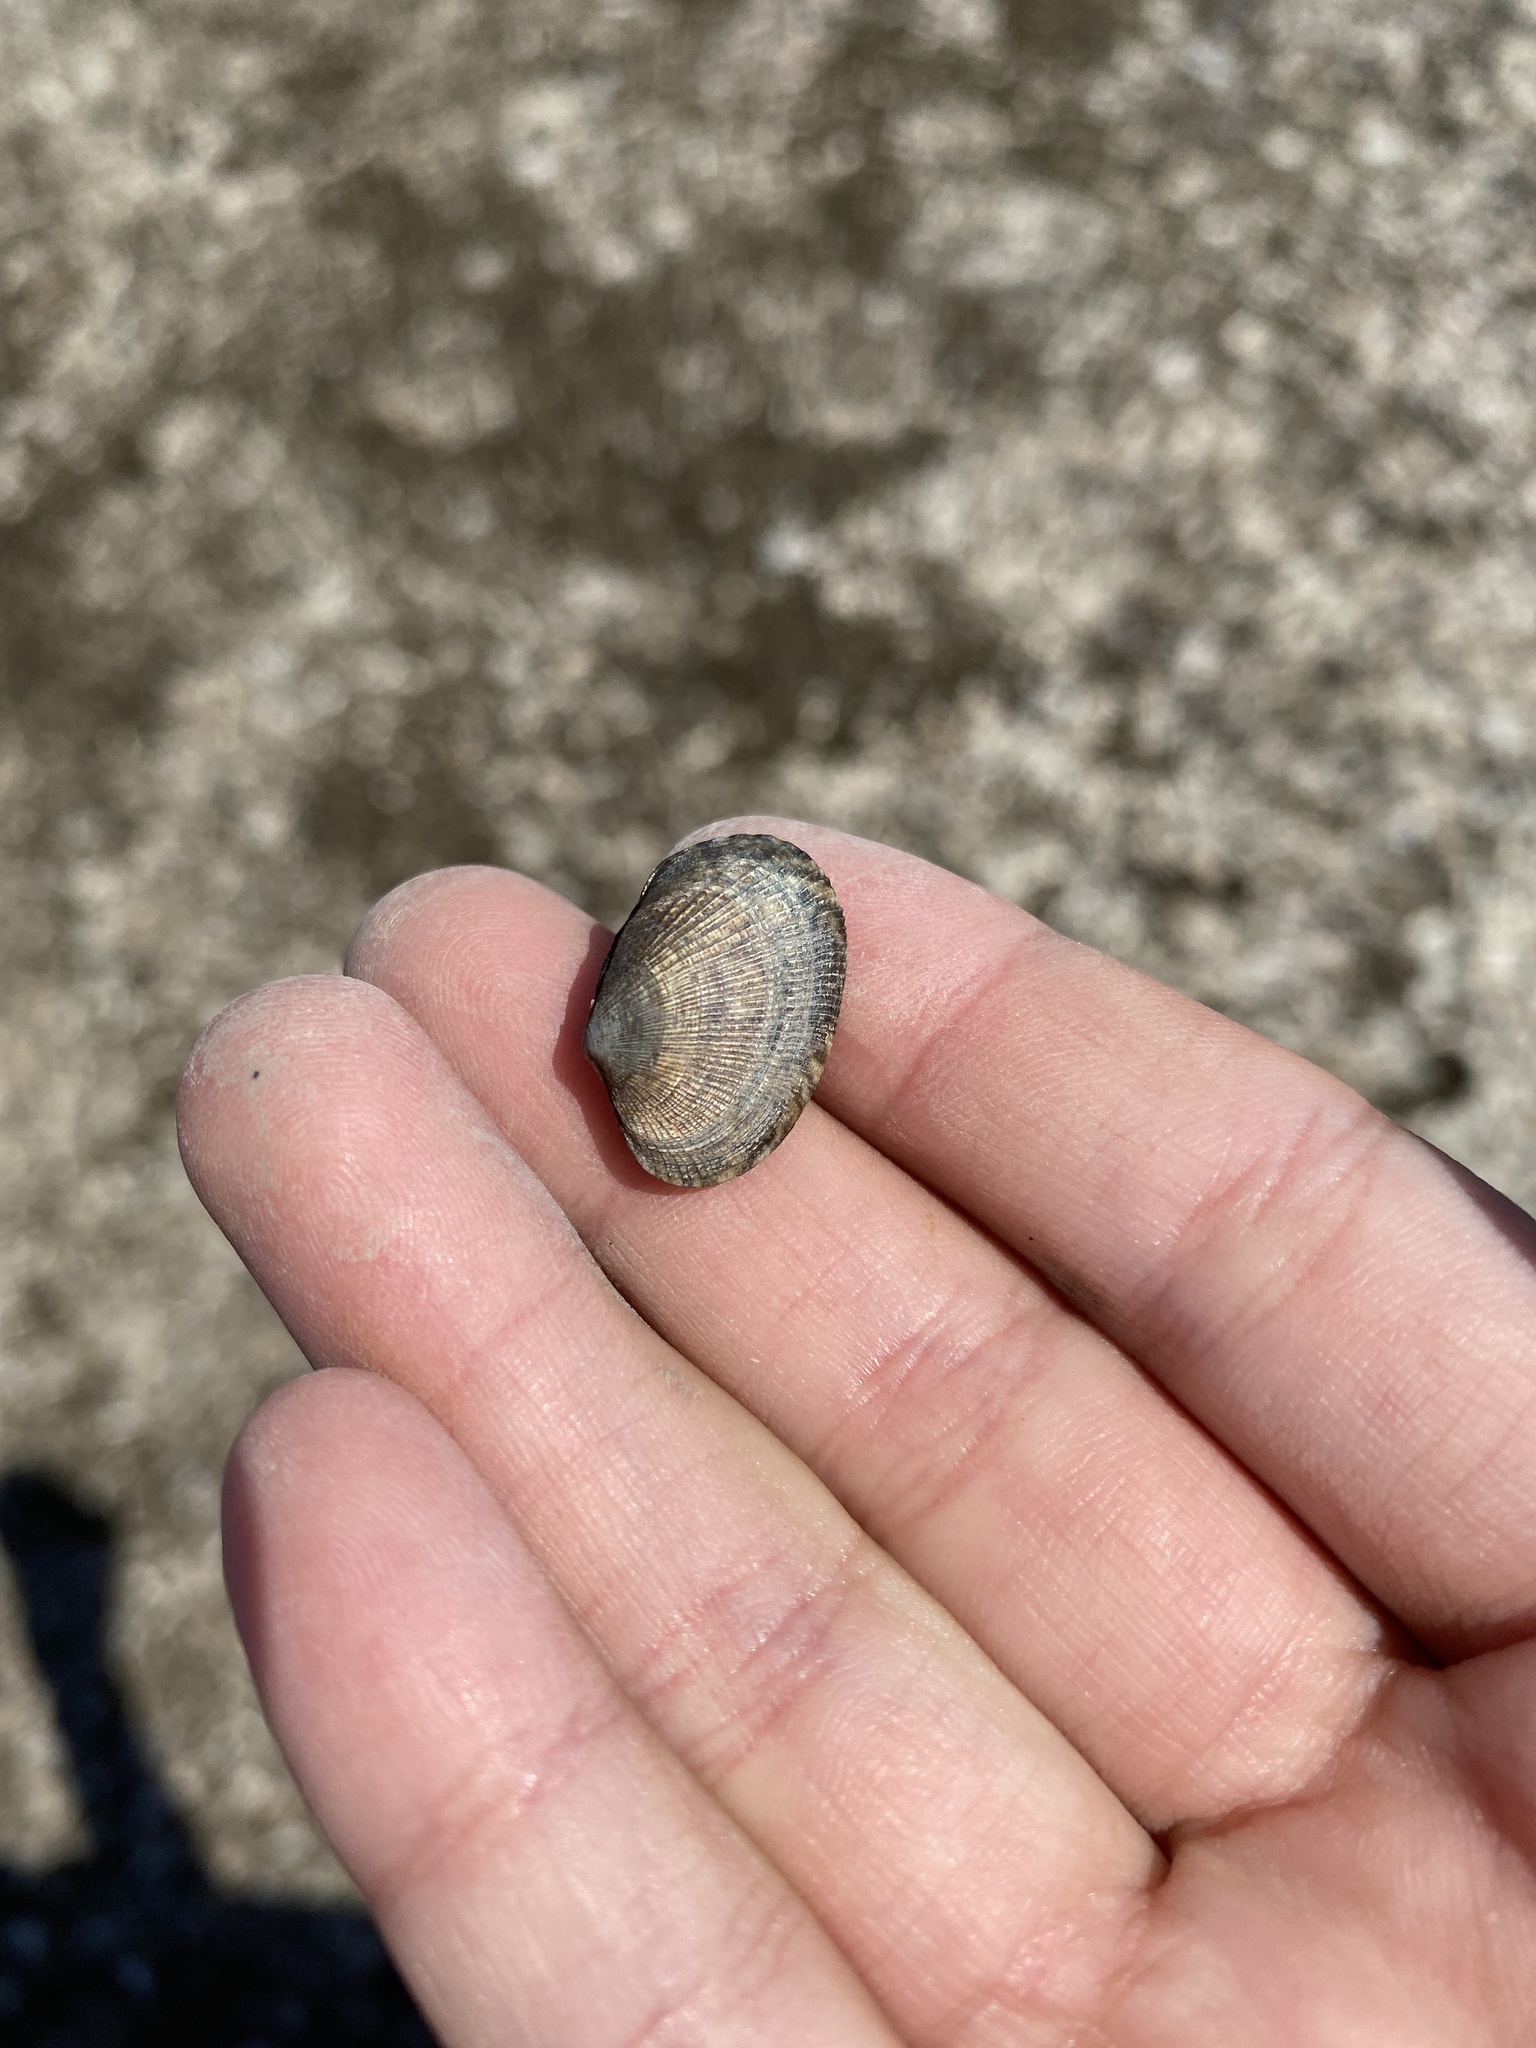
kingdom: Animalia
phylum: Mollusca
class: Bivalvia
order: Venerida
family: Veneridae
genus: Ruditapes
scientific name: Ruditapes philippinarum
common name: Manila clam
